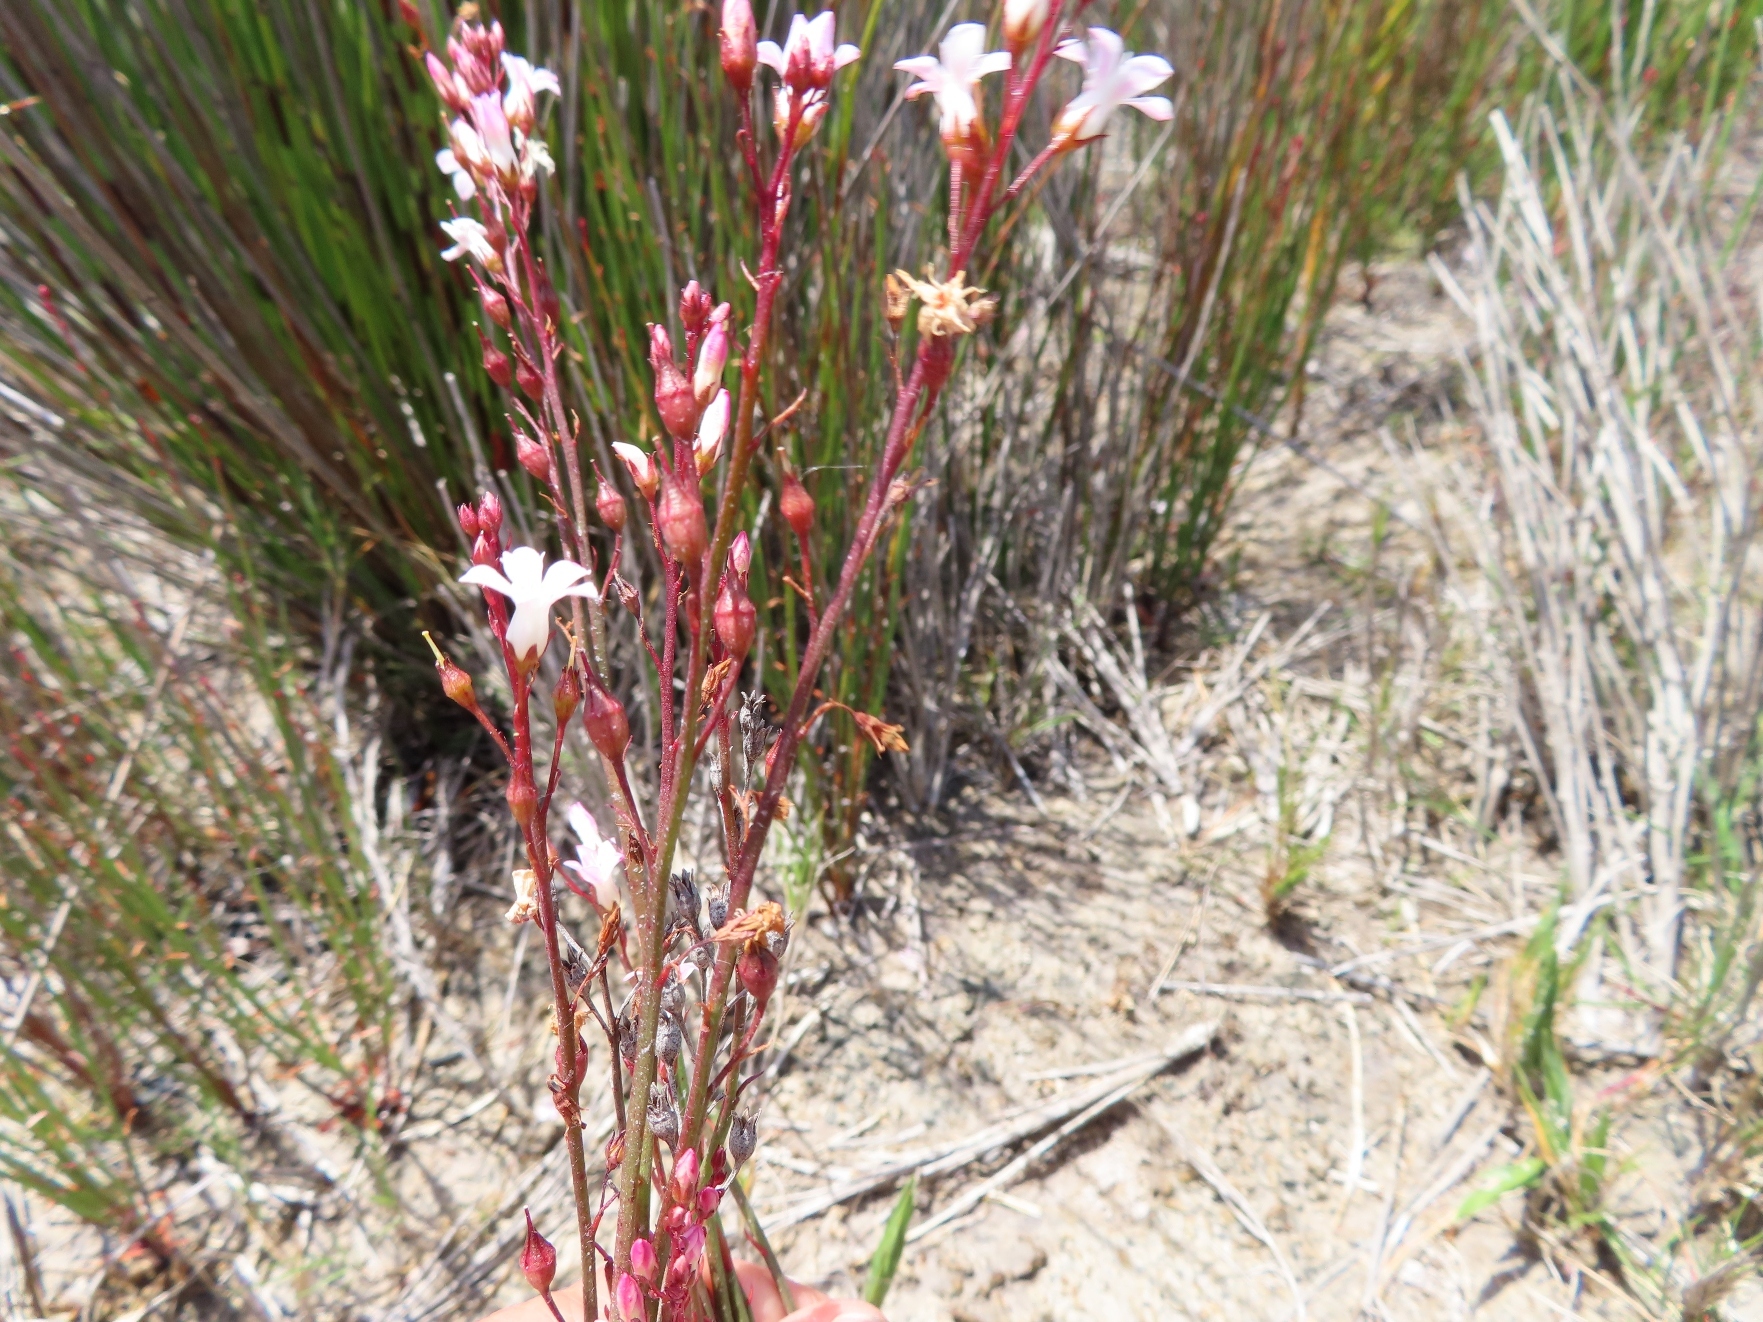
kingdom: Plantae
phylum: Tracheophyta
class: Magnoliopsida
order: Caryophyllales
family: Plumbaginaceae
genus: Limonium
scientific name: Limonium anthericoides
